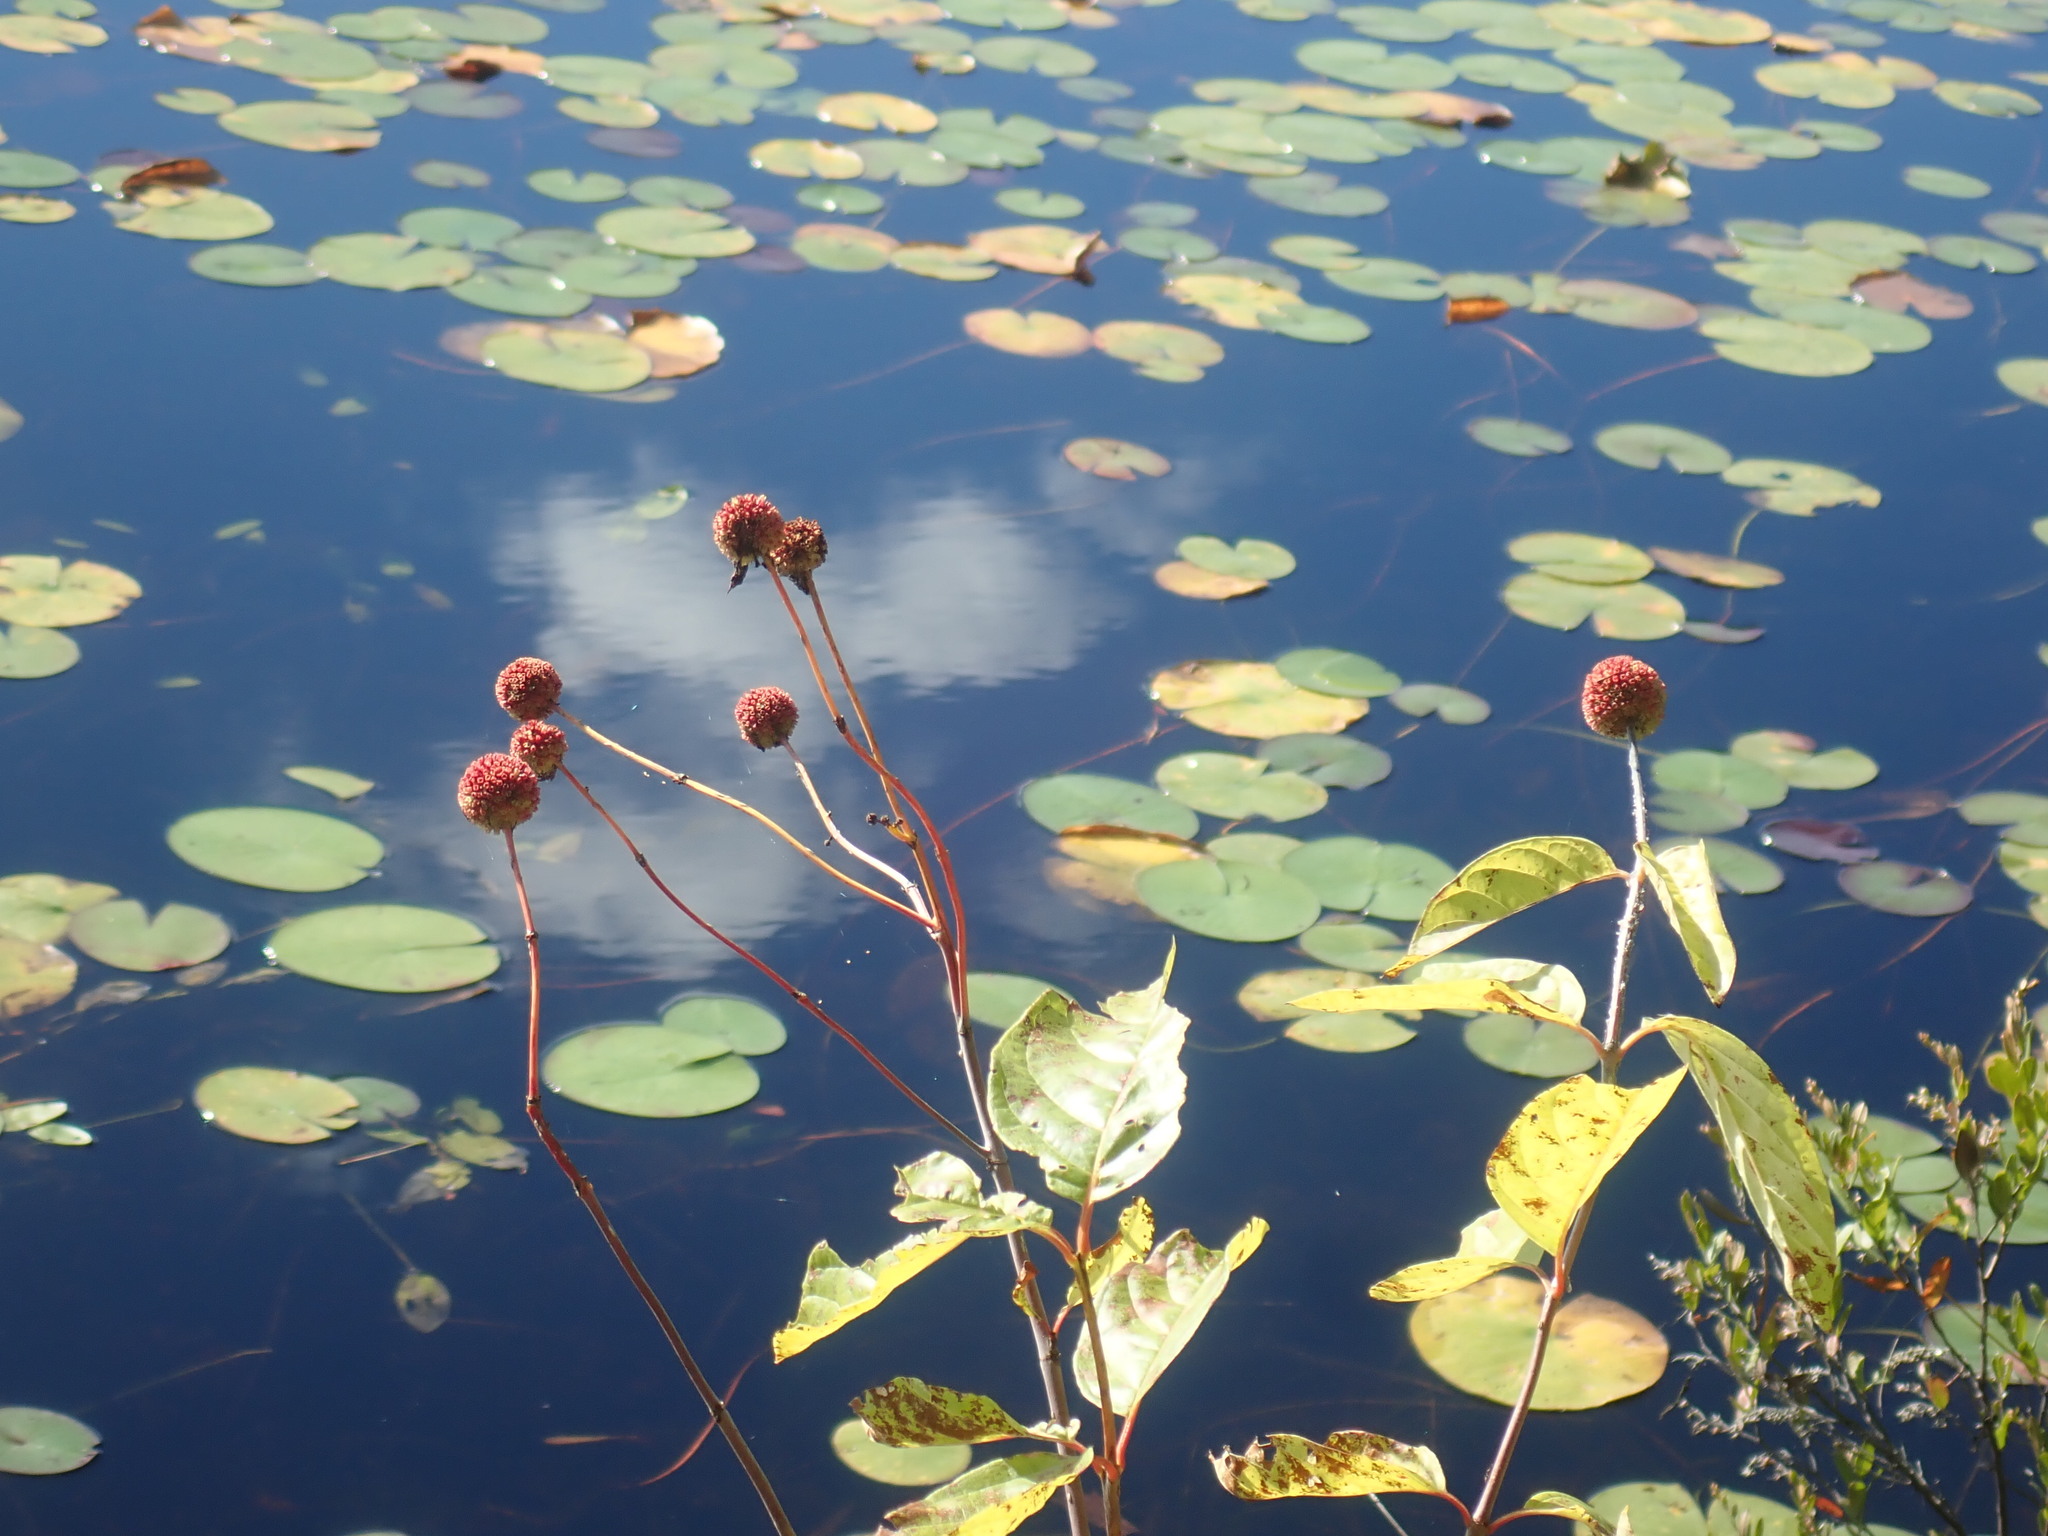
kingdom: Plantae
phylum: Tracheophyta
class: Magnoliopsida
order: Gentianales
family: Rubiaceae
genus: Cephalanthus
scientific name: Cephalanthus occidentalis
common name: Button-willow
